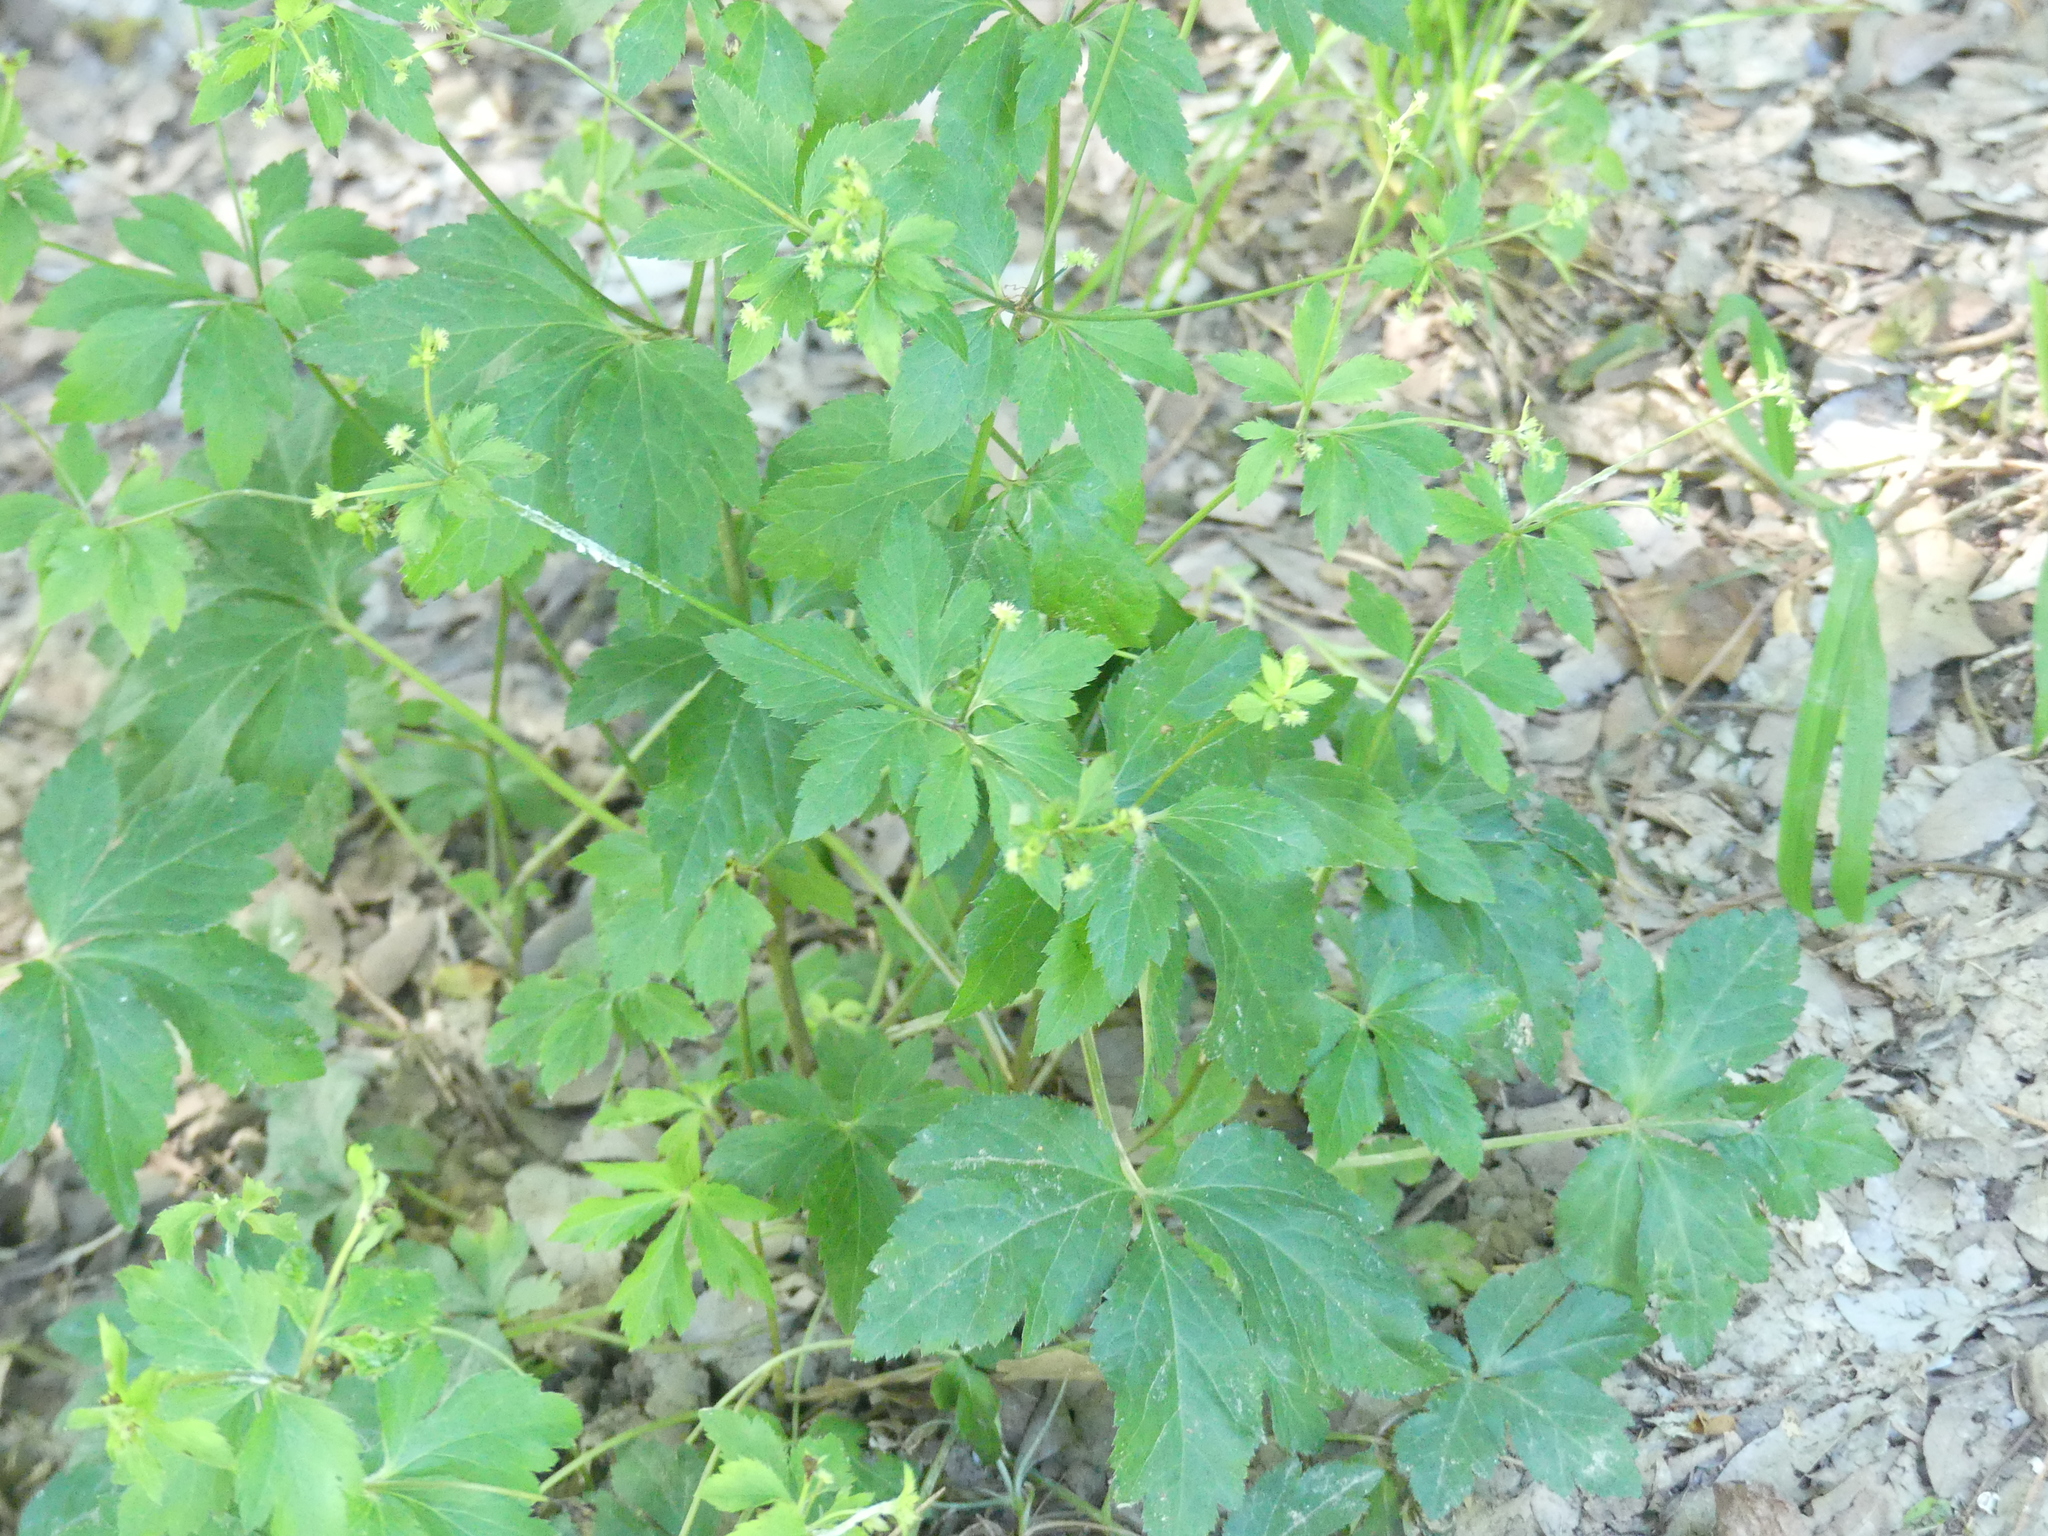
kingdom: Plantae
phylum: Tracheophyta
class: Magnoliopsida
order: Apiales
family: Apiaceae
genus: Sanicula
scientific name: Sanicula canadensis
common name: Canada sanicle
